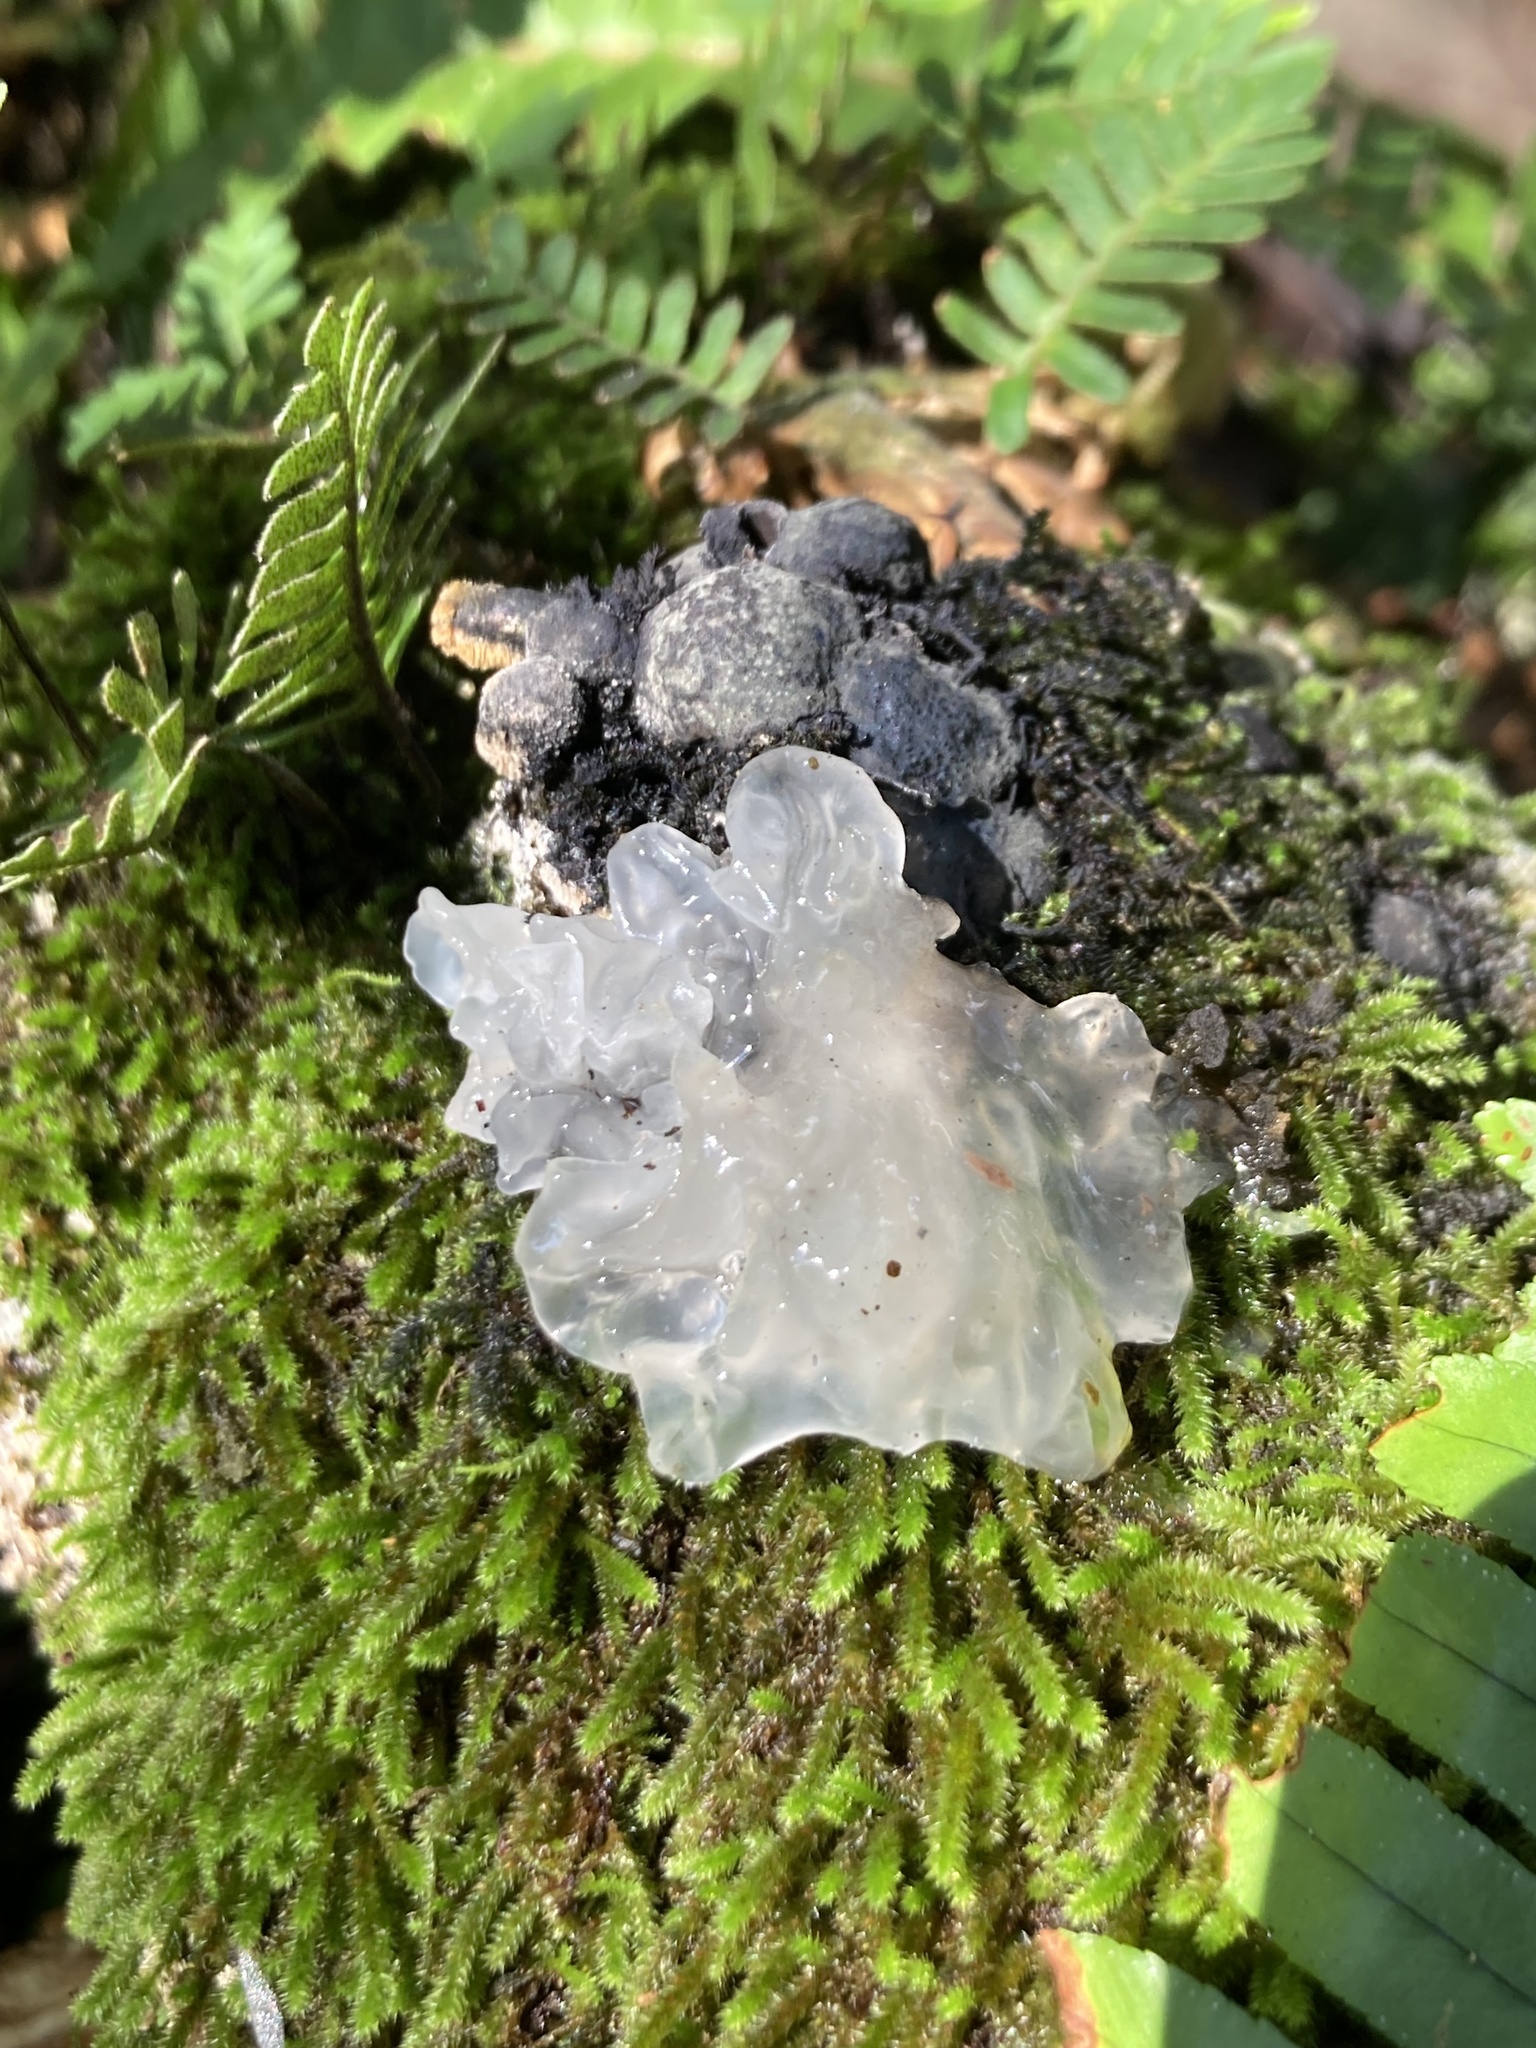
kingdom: Fungi
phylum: Basidiomycota
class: Tremellomycetes
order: Tremellales
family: Tremellaceae
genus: Tremella
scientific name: Tremella fuciformis
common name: Snow fungus
